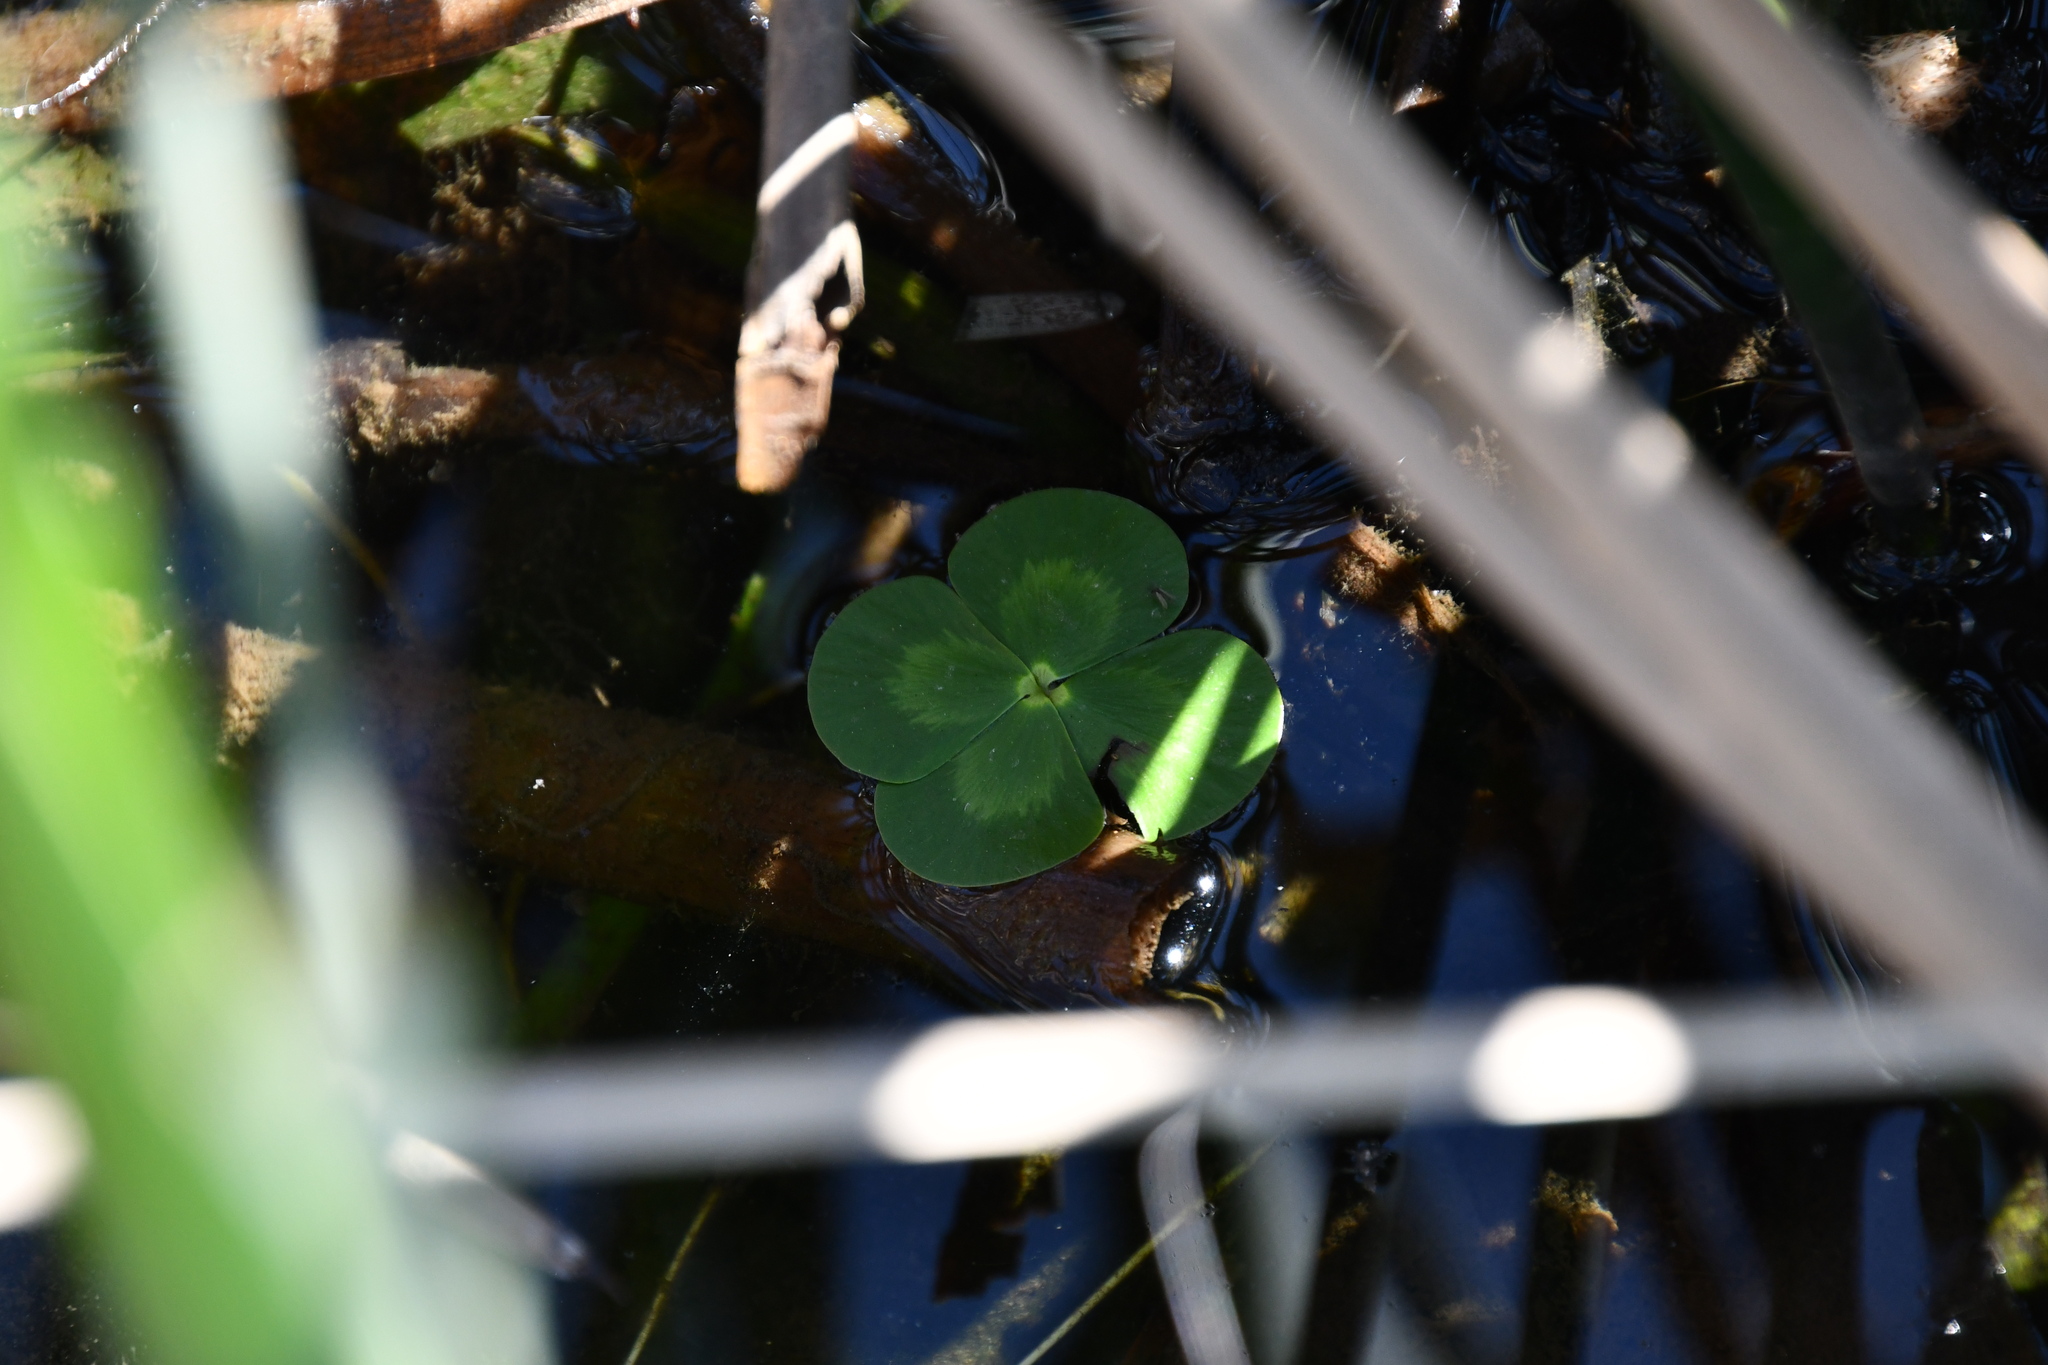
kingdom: Plantae
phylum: Tracheophyta
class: Polypodiopsida
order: Salviniales
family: Marsileaceae
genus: Marsilea
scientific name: Marsilea mutica
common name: Australian water-clover
